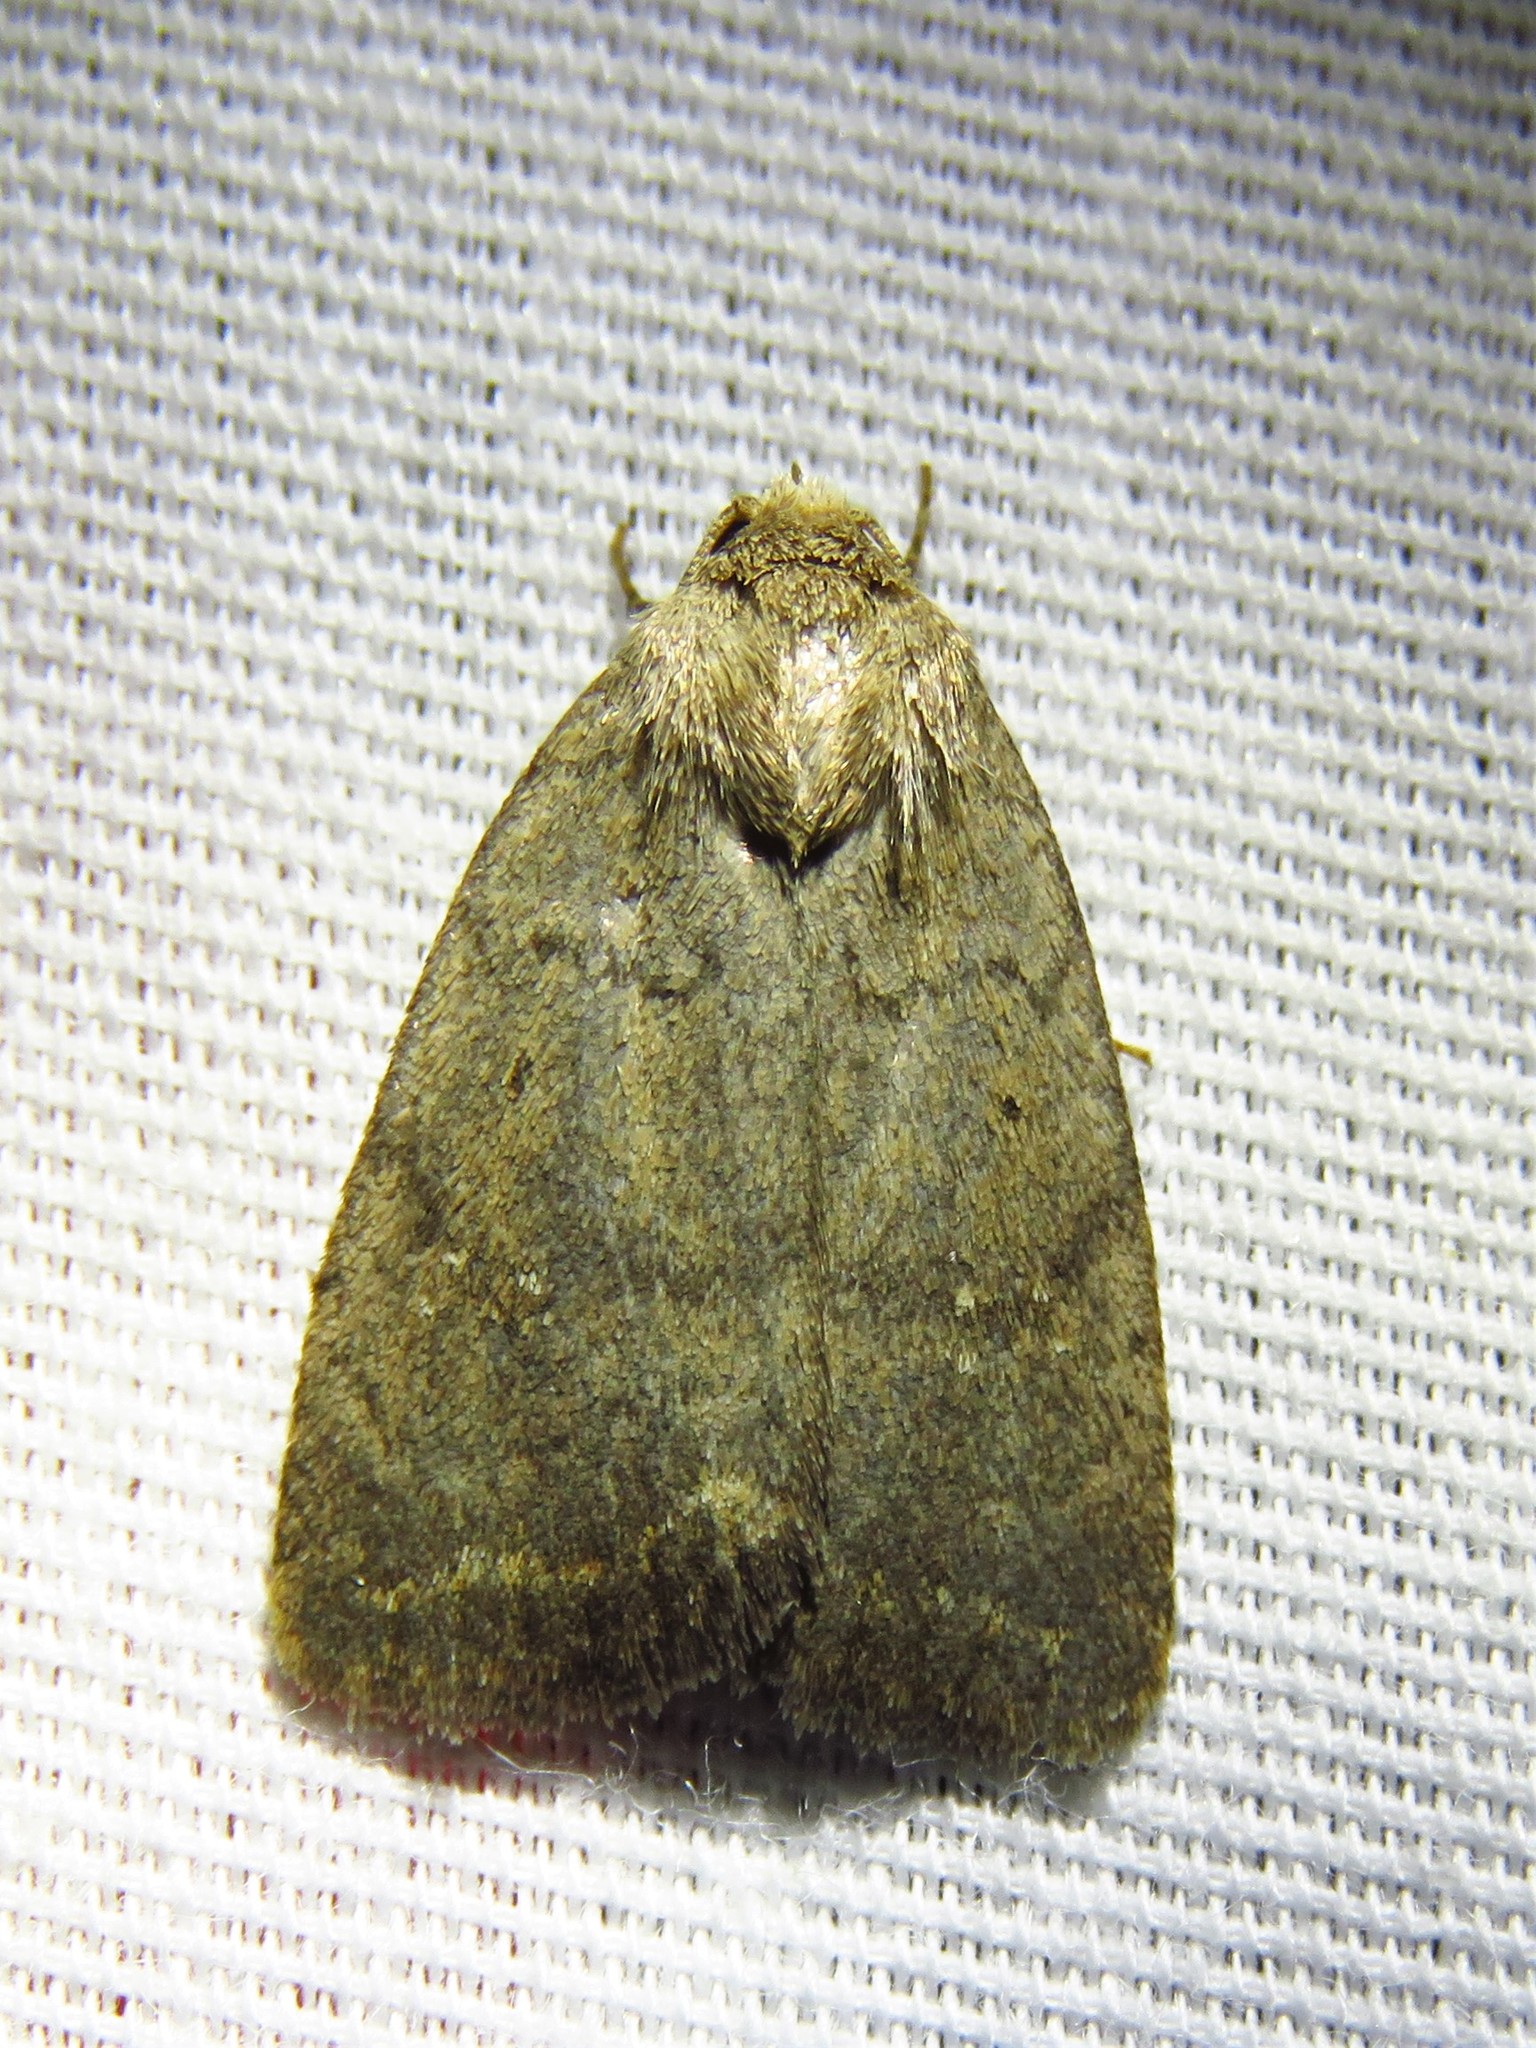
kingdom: Animalia
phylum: Arthropoda
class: Insecta
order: Lepidoptera
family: Noctuidae
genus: Athetis
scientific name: Athetis tarda
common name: Slowpoke moth
